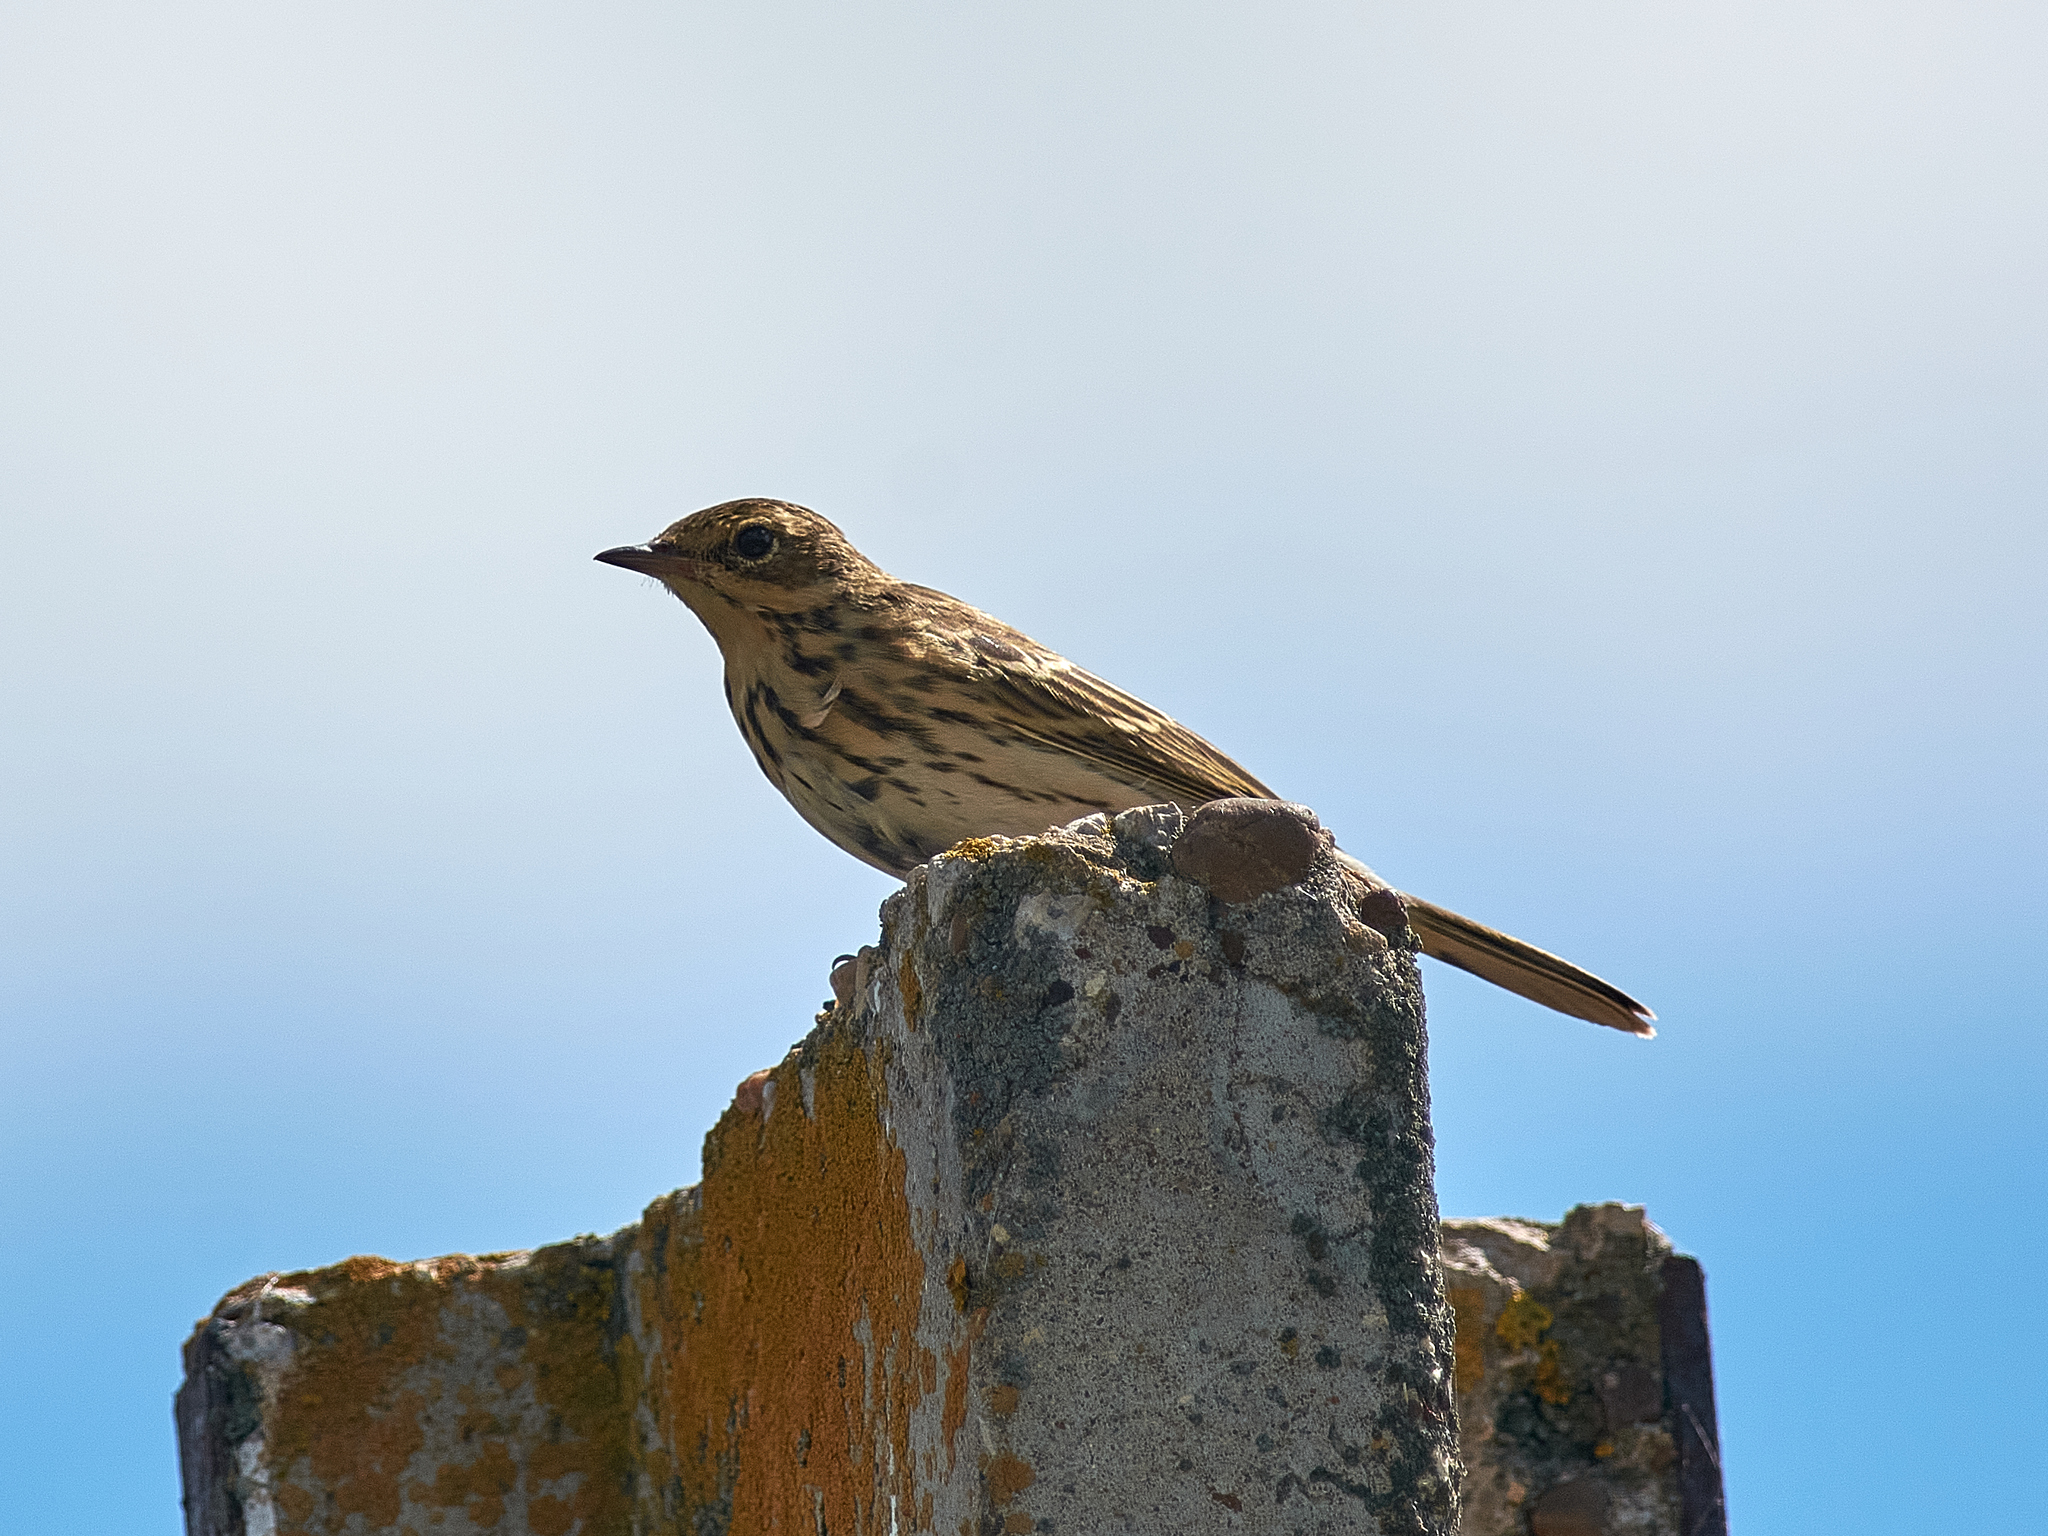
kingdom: Animalia
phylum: Chordata
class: Aves
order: Passeriformes
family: Motacillidae
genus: Anthus
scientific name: Anthus trivialis
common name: Tree pipit
